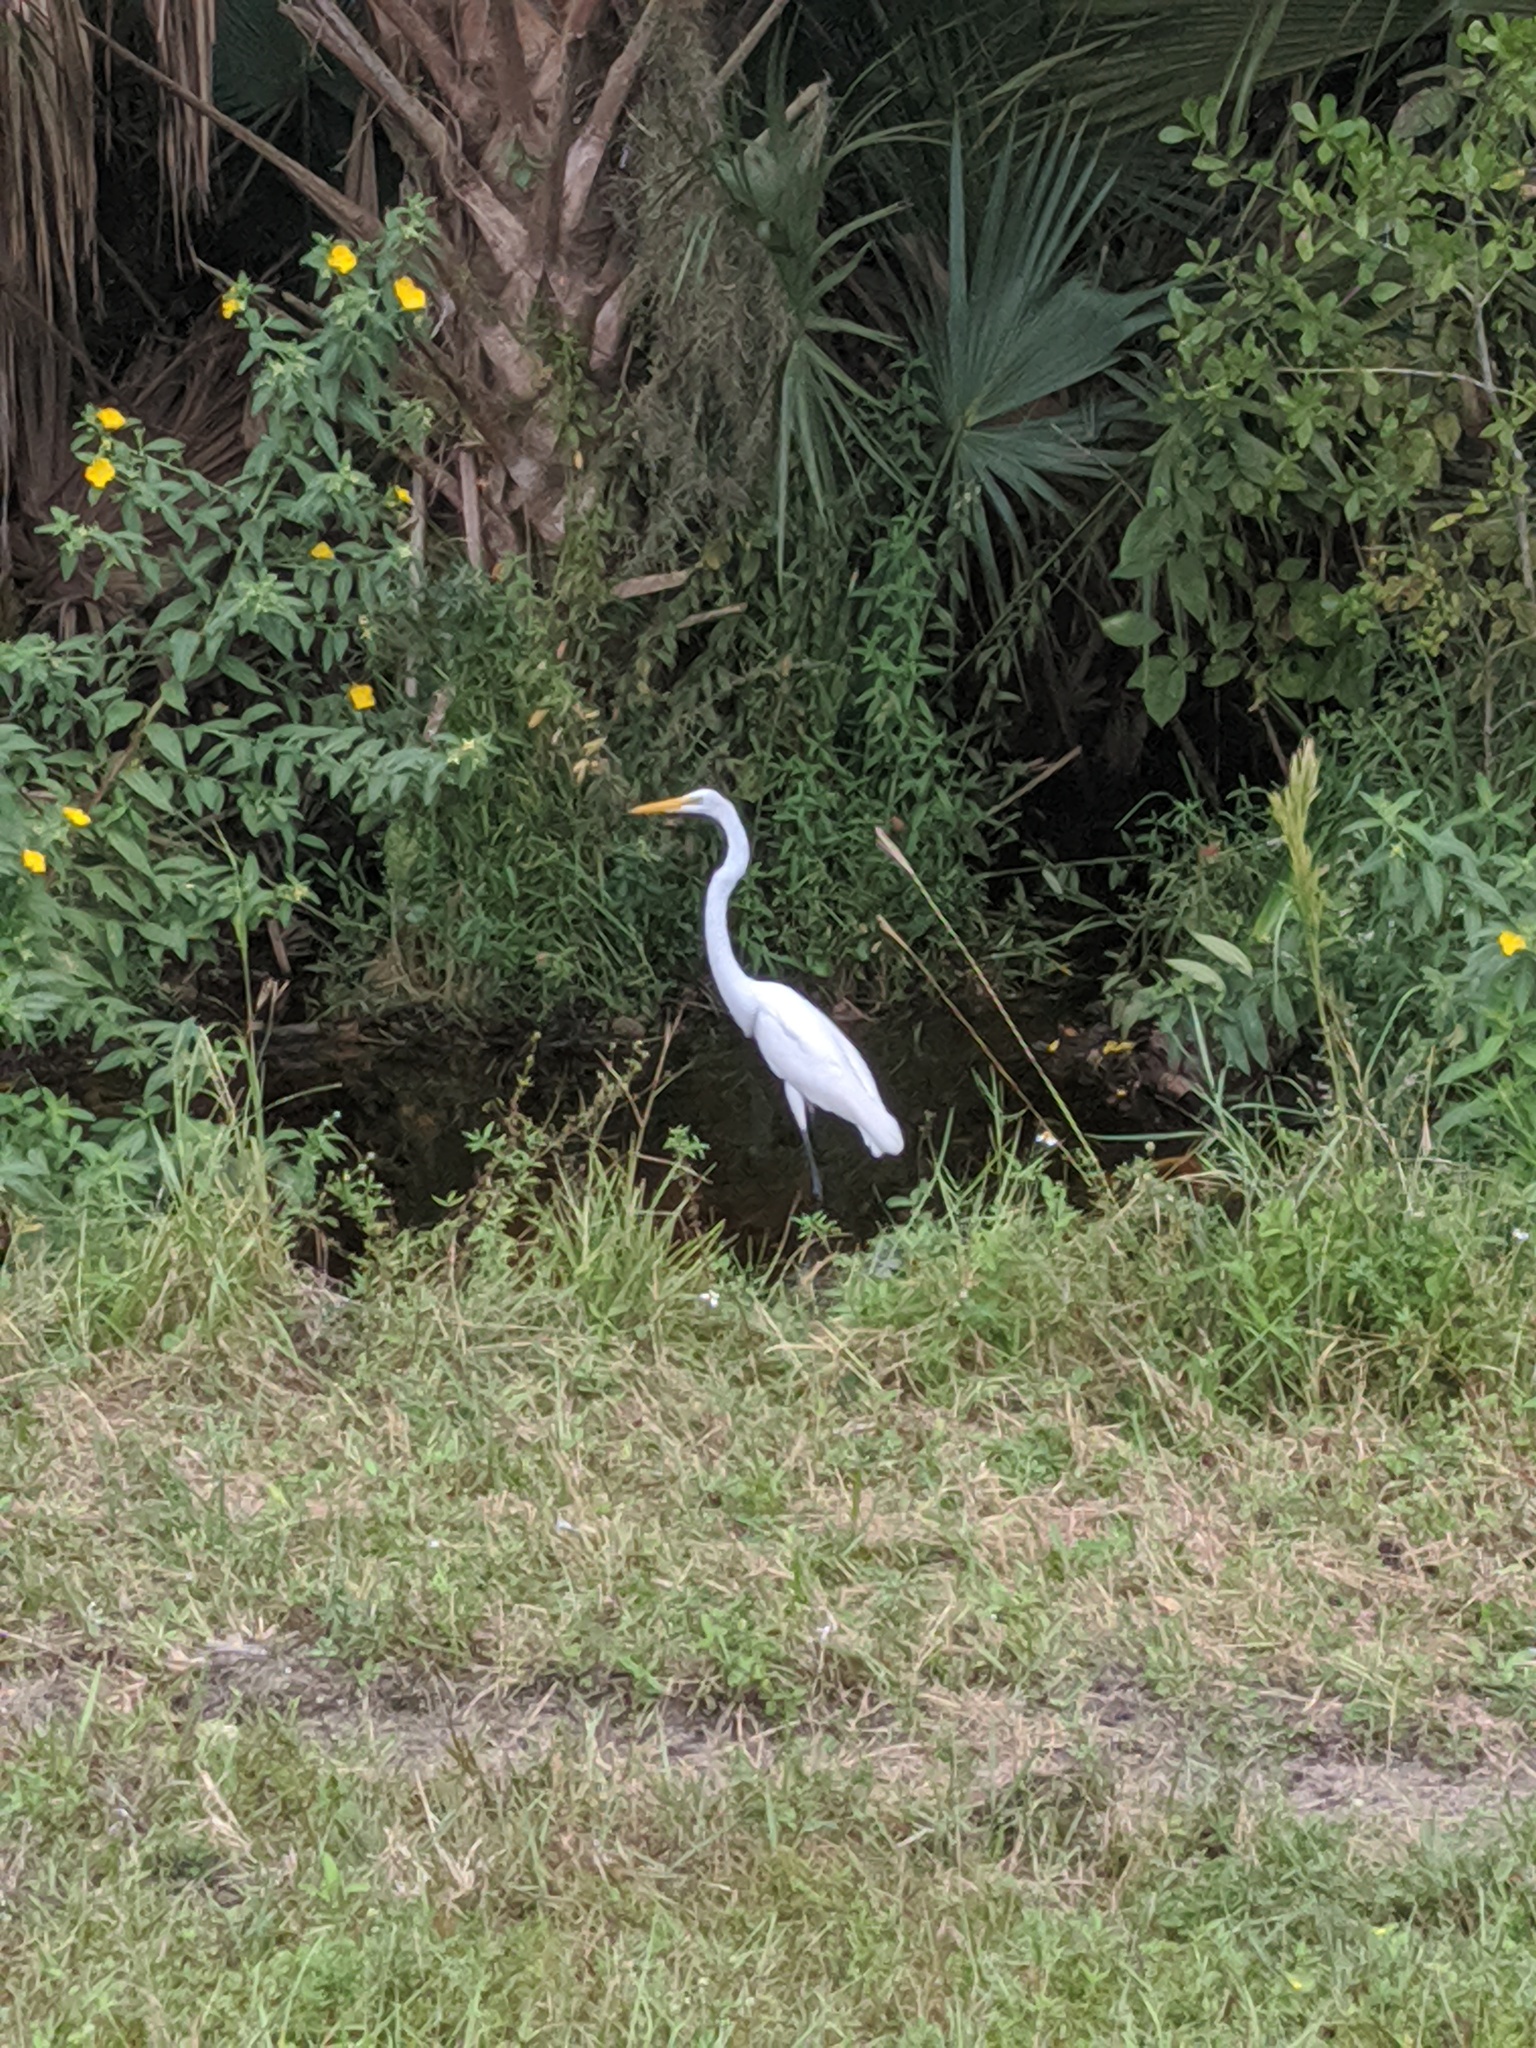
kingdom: Animalia
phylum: Chordata
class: Aves
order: Pelecaniformes
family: Ardeidae
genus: Ardea
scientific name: Ardea alba
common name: Great egret
